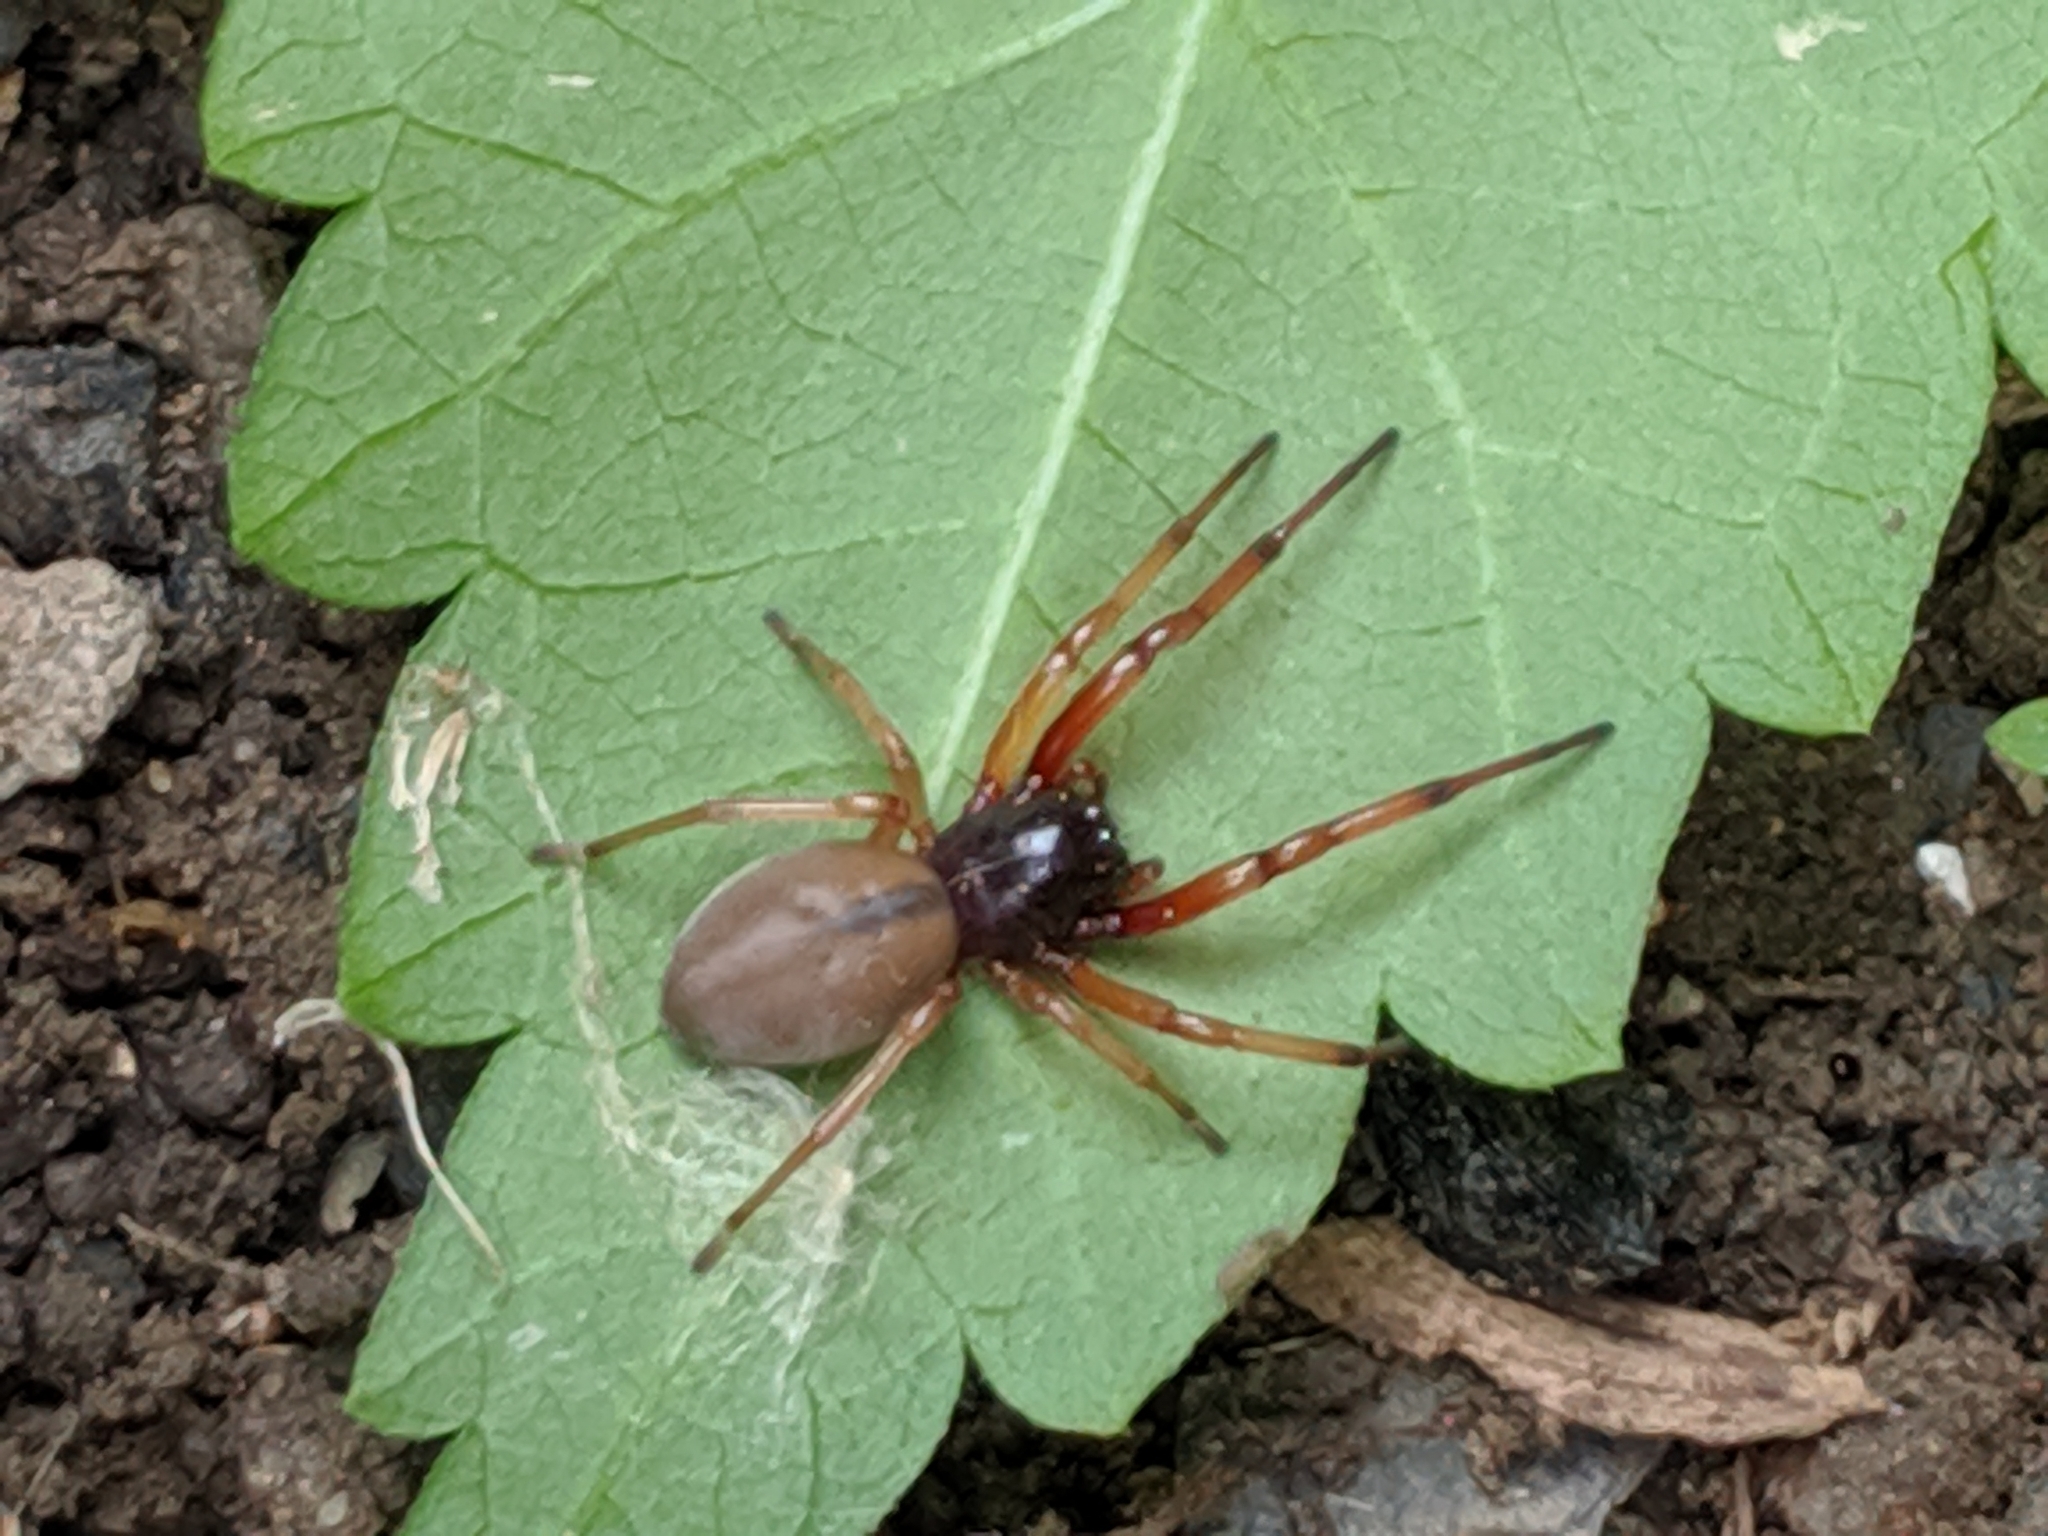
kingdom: Animalia
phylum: Arthropoda
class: Arachnida
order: Araneae
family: Trachelidae
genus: Trachelas
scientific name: Trachelas tranquillus
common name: Broad-faced sac spider
